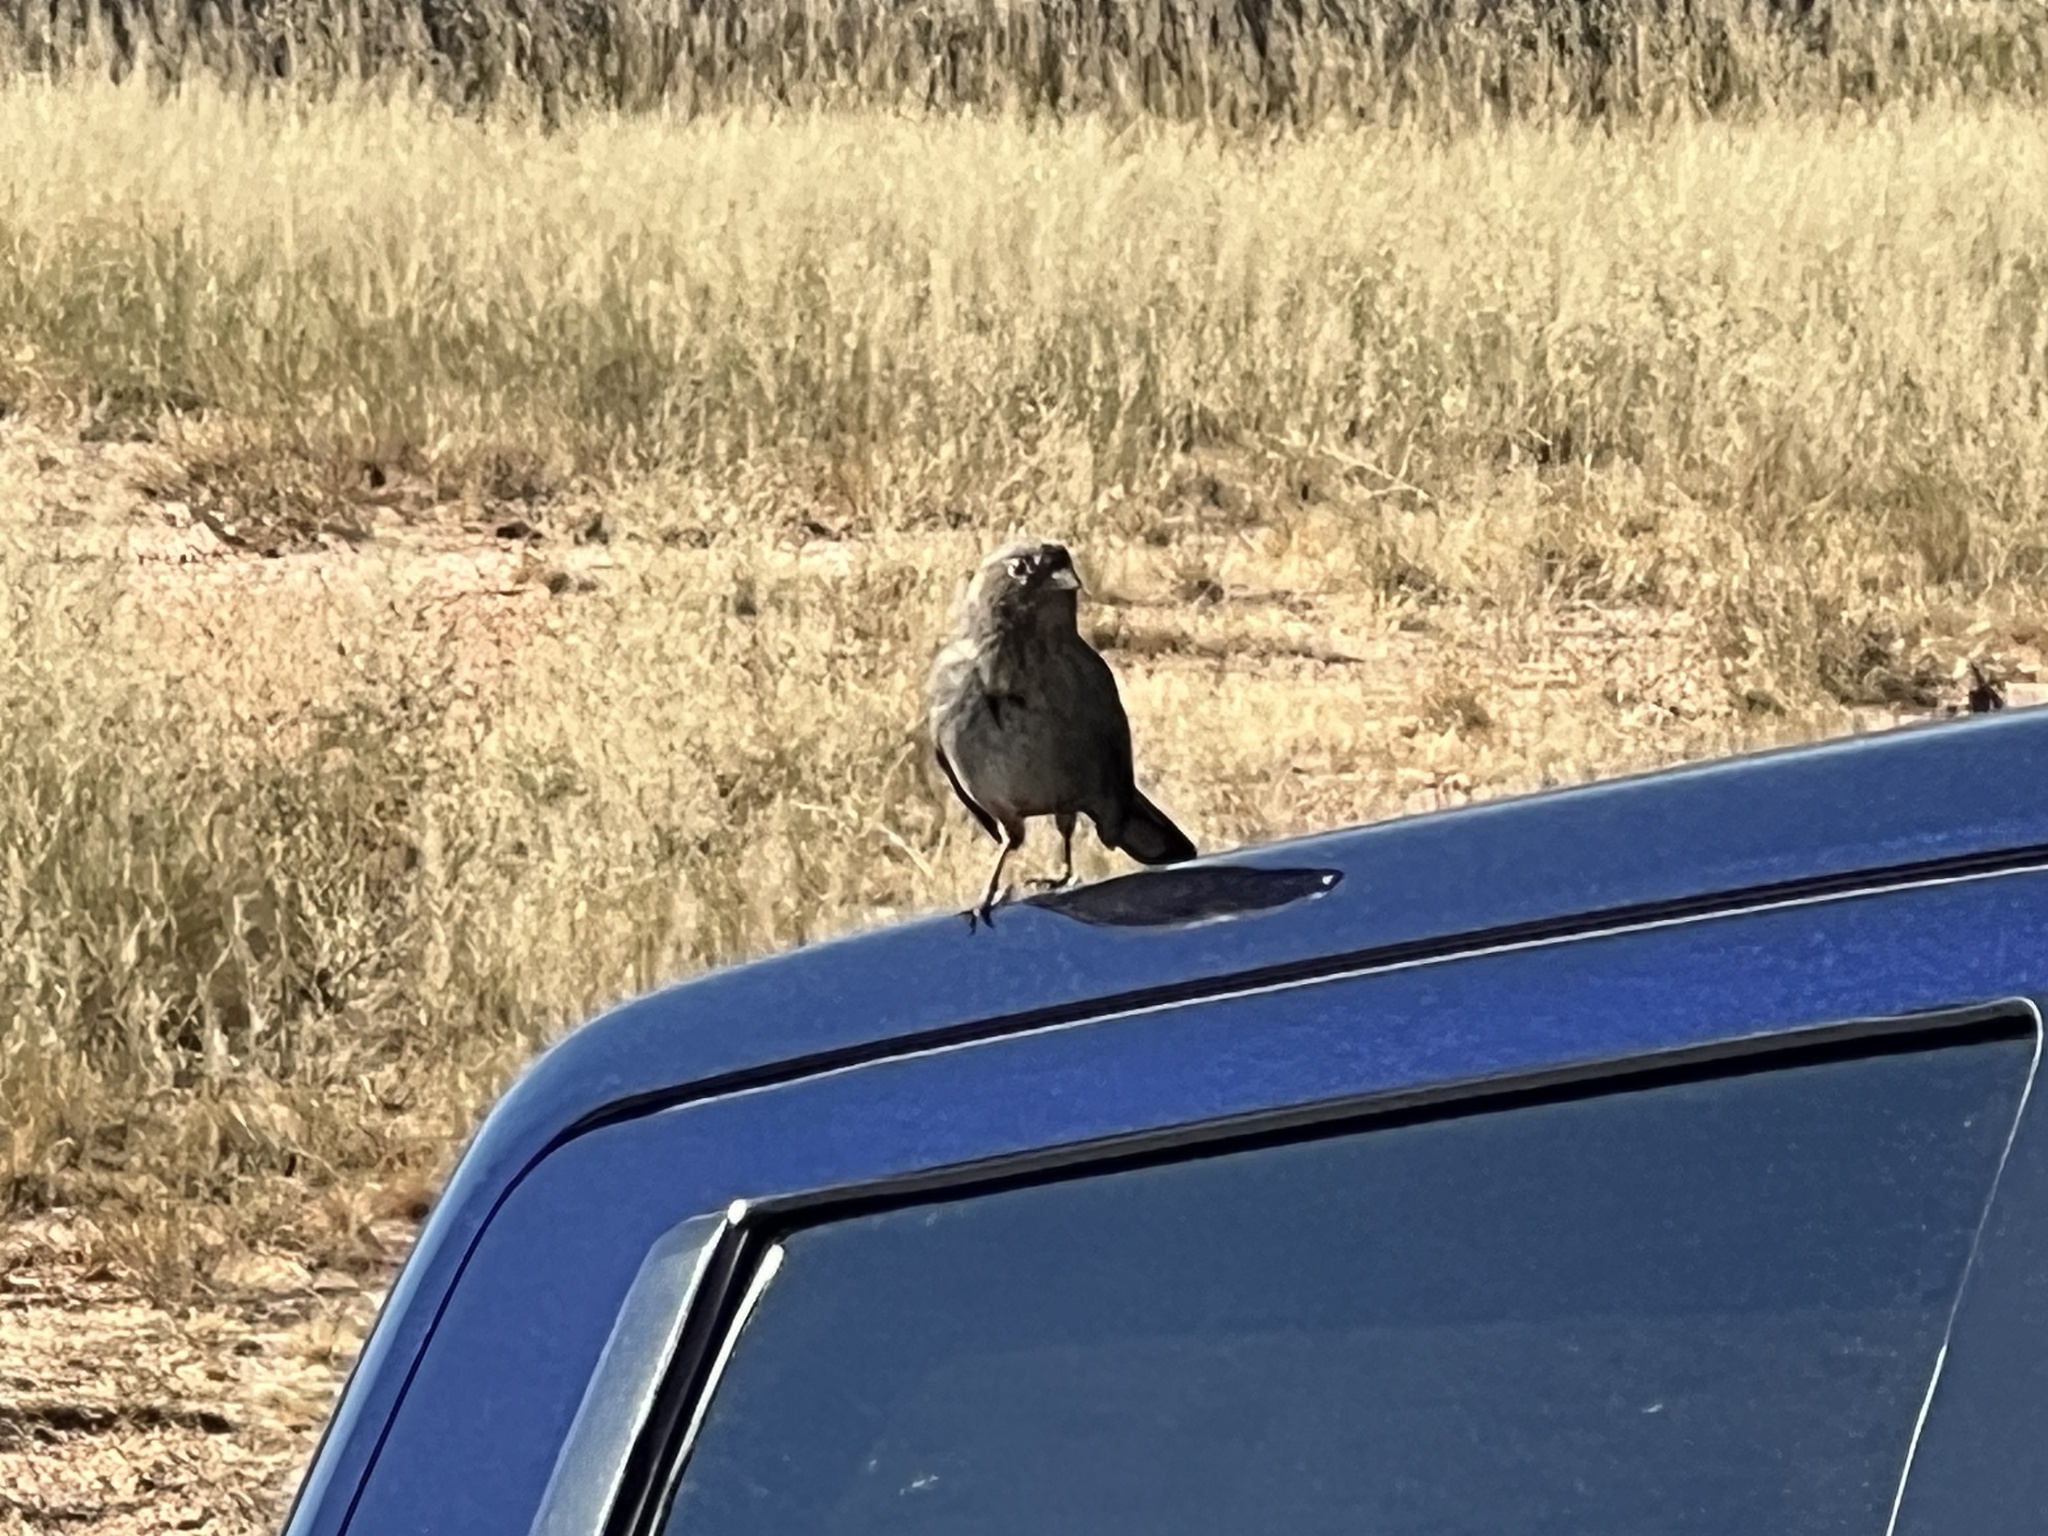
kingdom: Animalia
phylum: Chordata
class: Aves
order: Passeriformes
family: Passerellidae
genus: Melozone
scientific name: Melozone fusca
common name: Canyon towhee
